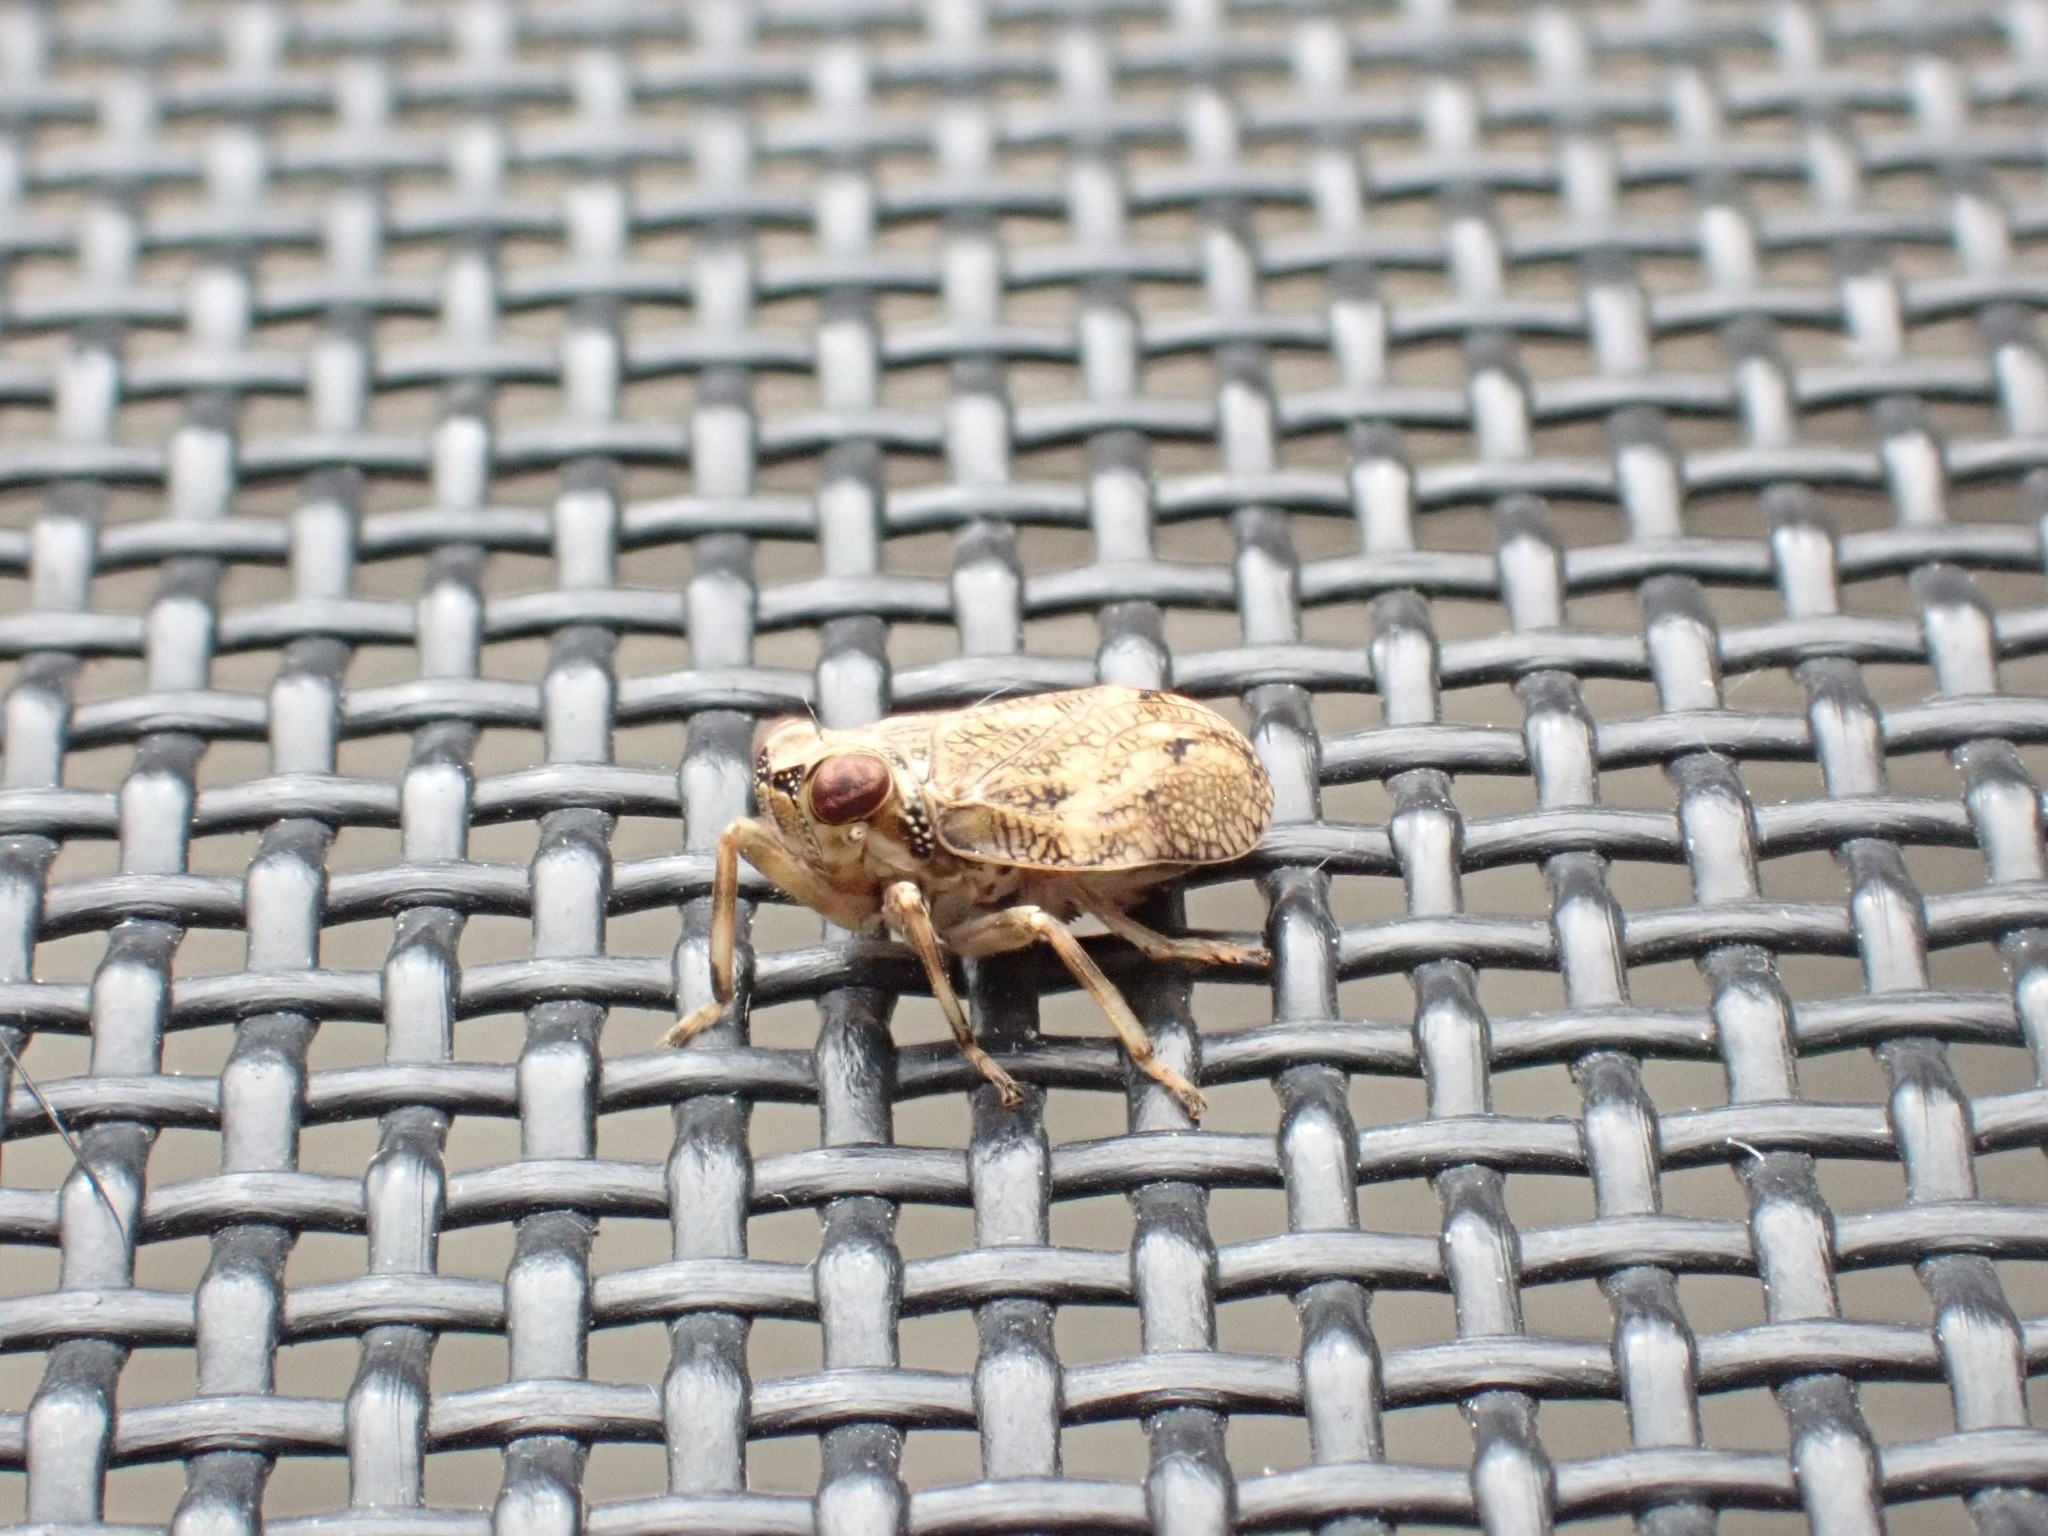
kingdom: Animalia
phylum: Arthropoda
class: Insecta
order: Hemiptera
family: Issidae
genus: Issus
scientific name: Issus coleoptratus
